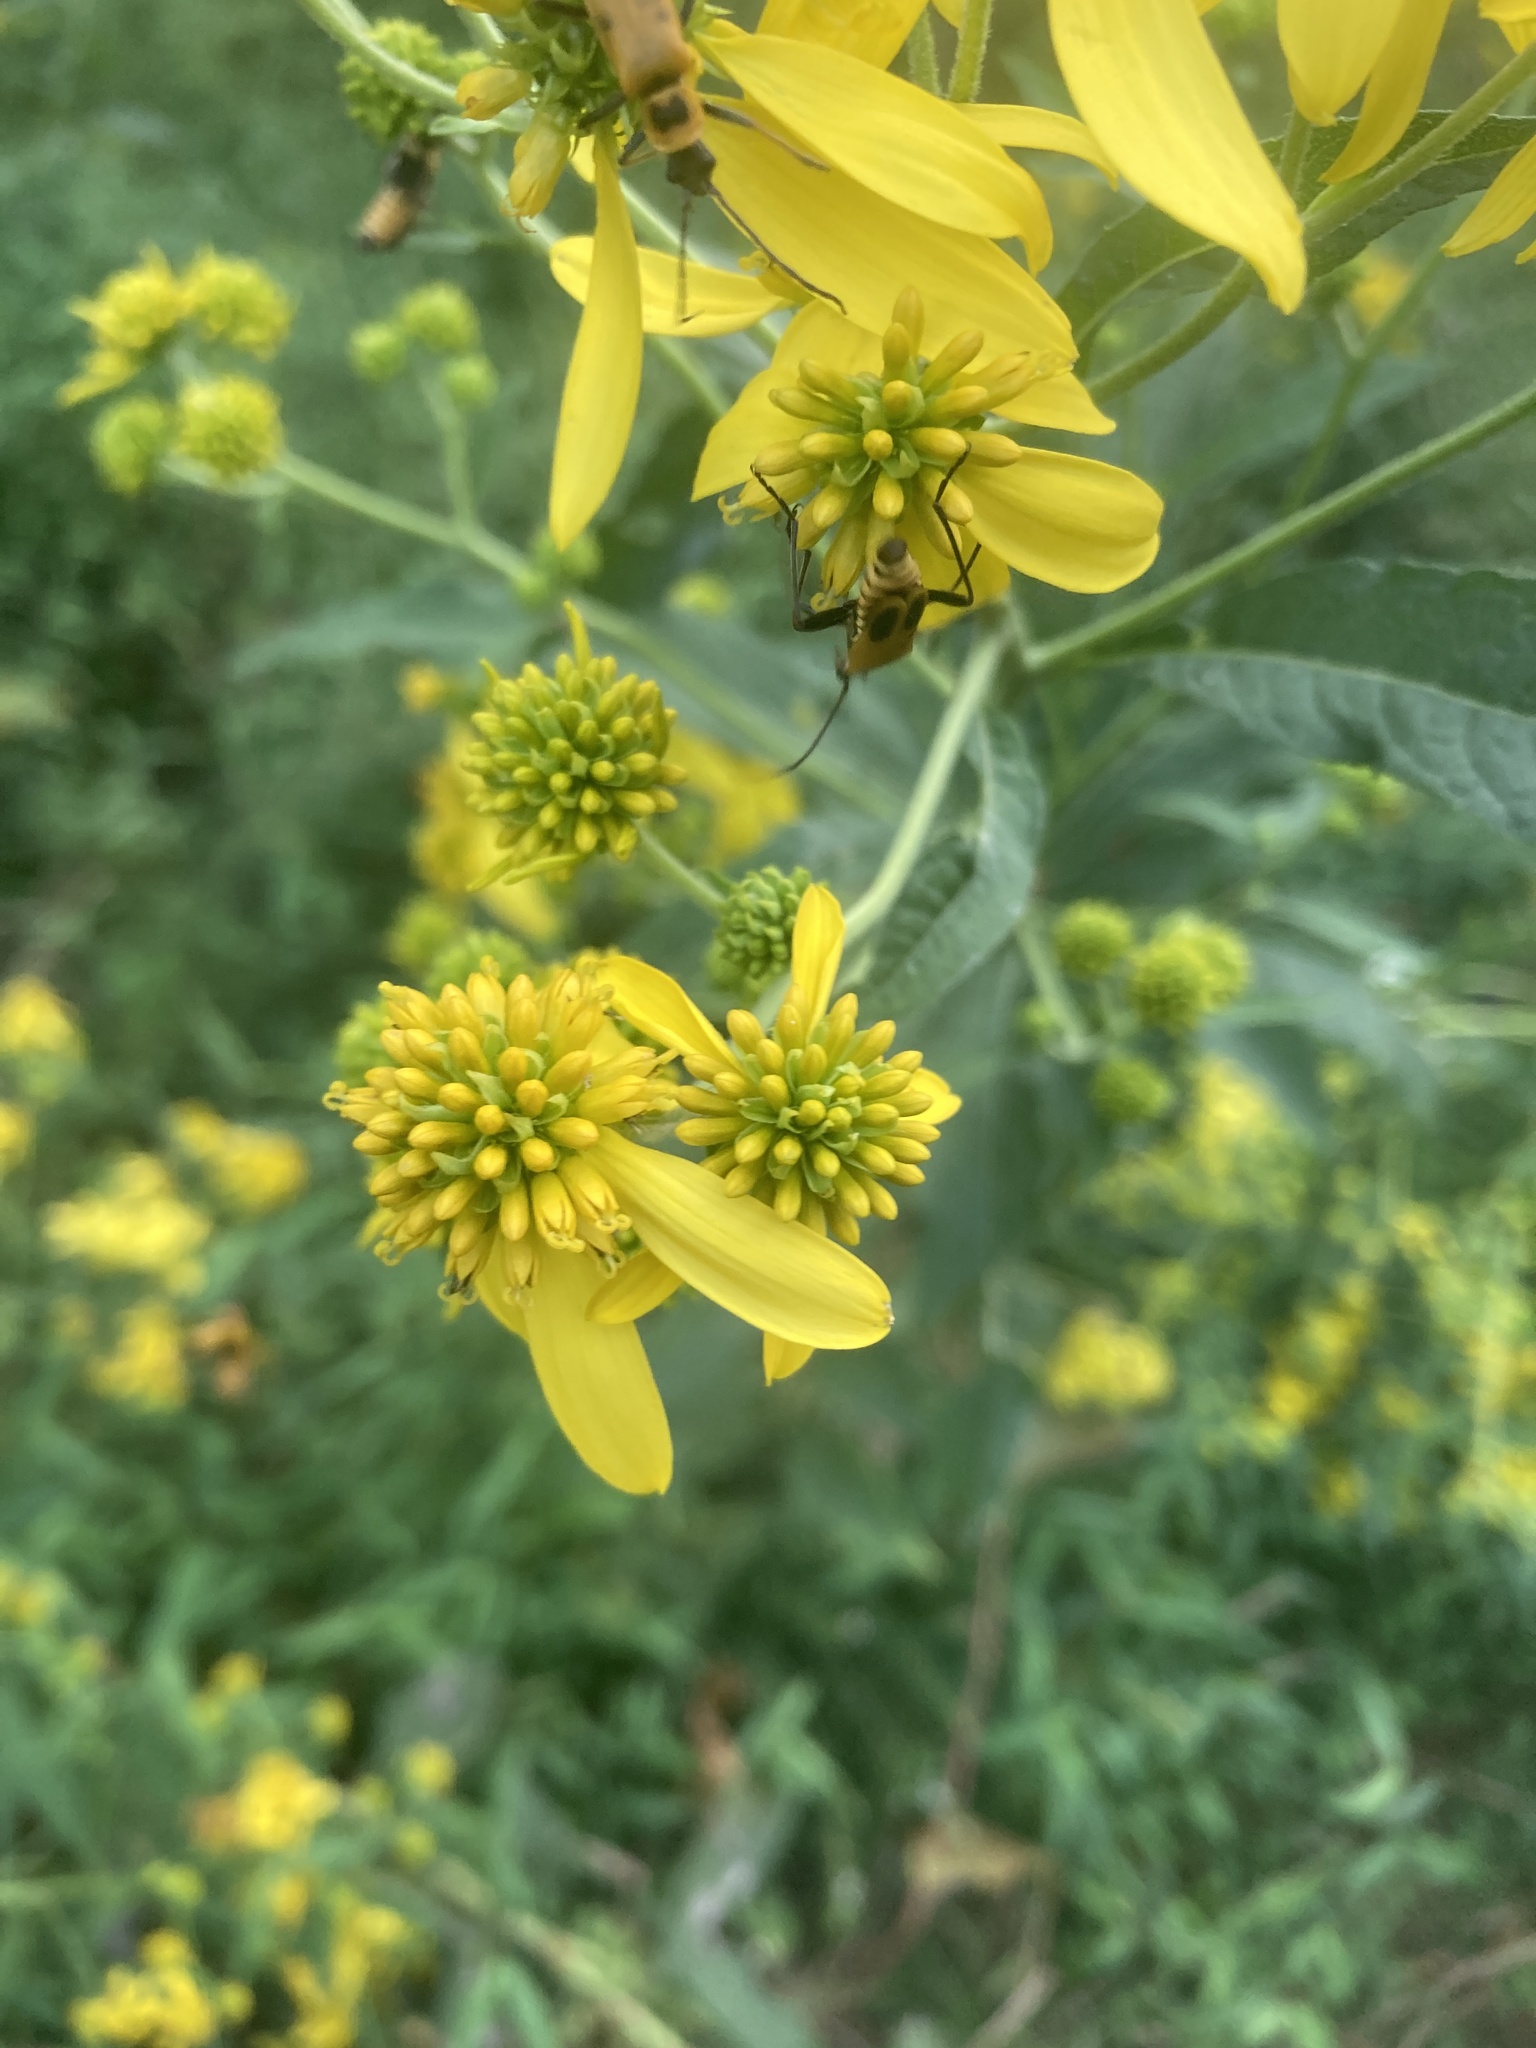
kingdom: Plantae
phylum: Tracheophyta
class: Magnoliopsida
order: Asterales
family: Asteraceae
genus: Verbesina
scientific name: Verbesina alternifolia
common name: Wingstem
